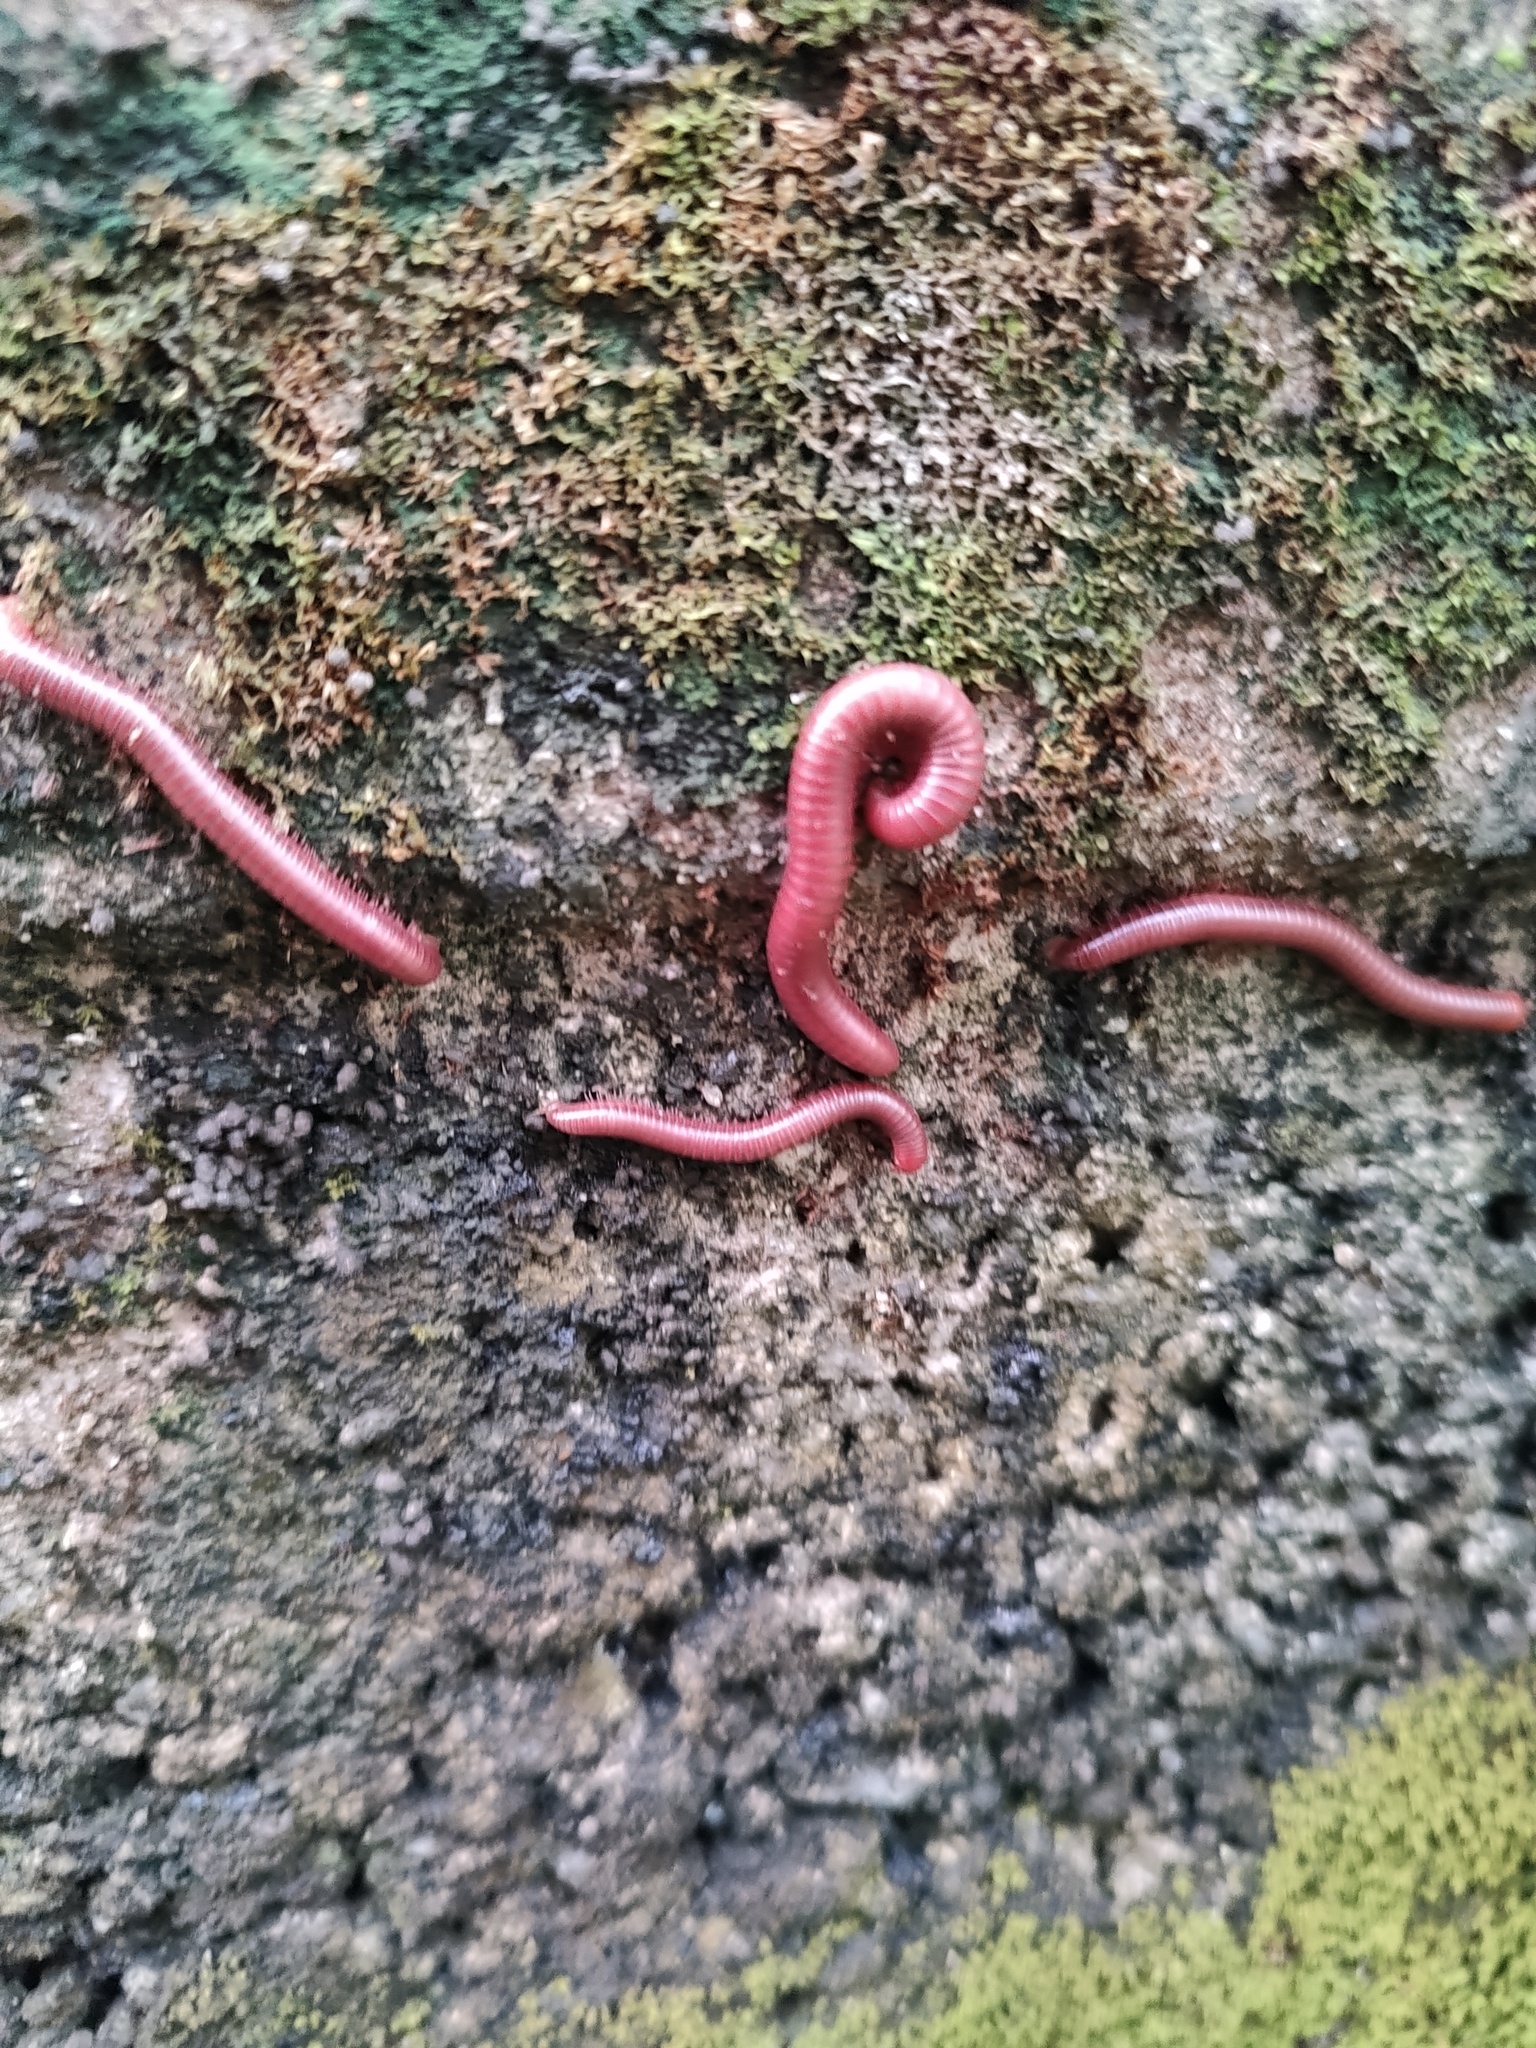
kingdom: Animalia
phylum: Arthropoda
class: Diplopoda
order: Spirobolida
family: Pachybolidae
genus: Trigoniulus
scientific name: Trigoniulus corallinus
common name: Millipede
